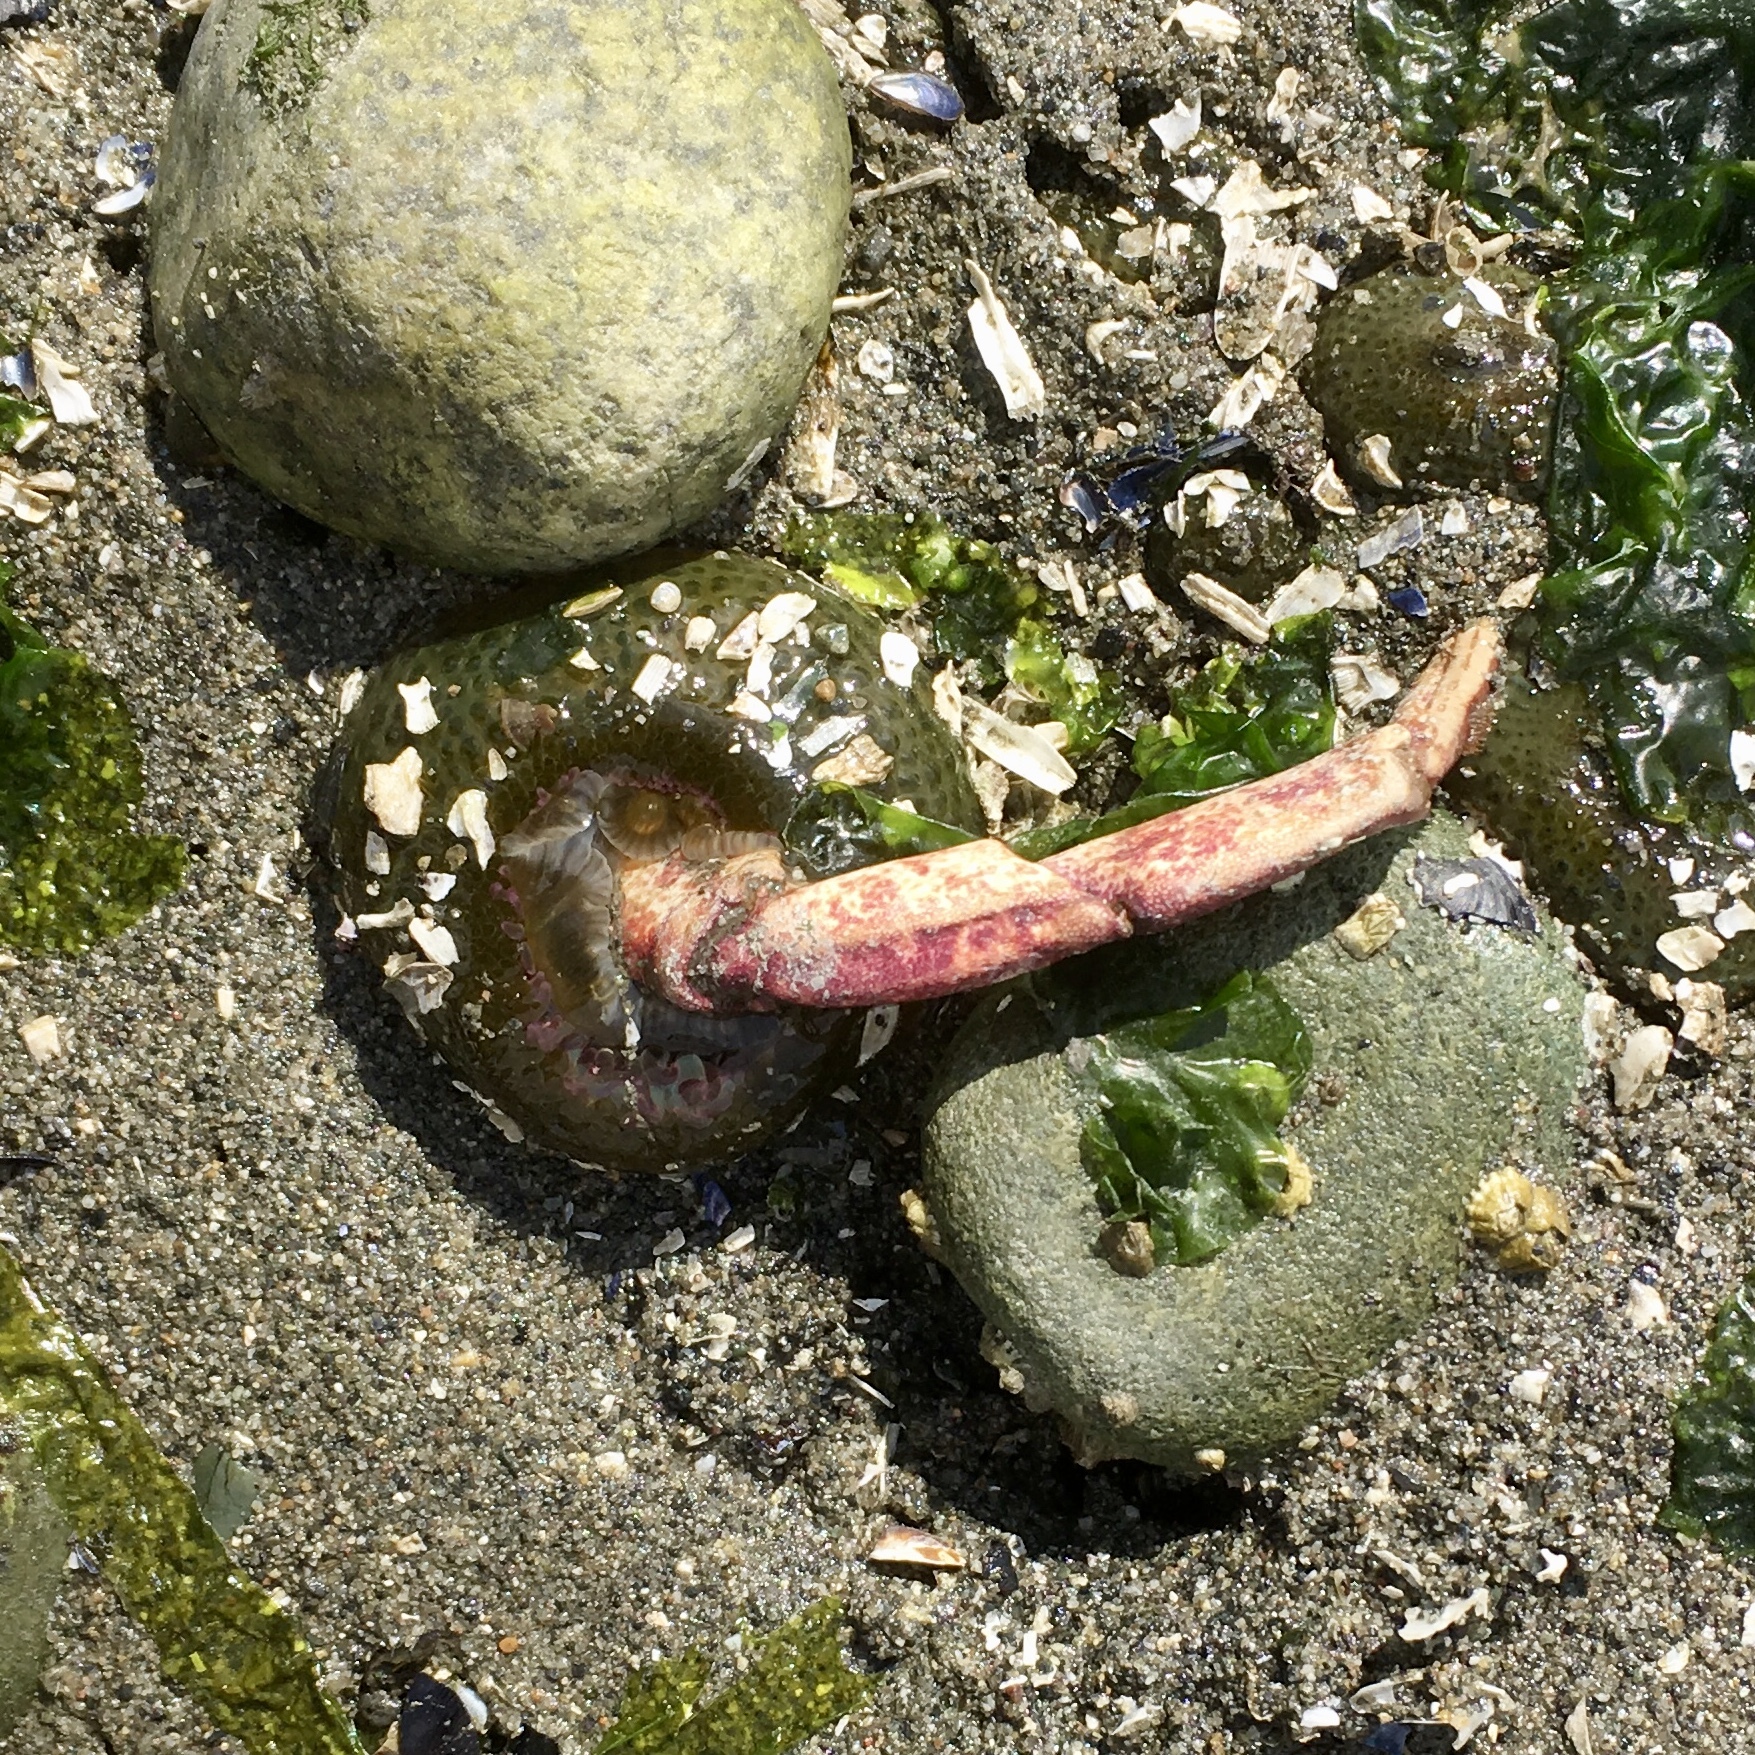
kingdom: Animalia
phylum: Cnidaria
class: Anthozoa
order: Actiniaria
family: Actiniidae
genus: Anthopleura
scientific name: Anthopleura elegantissima
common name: Clonal anemone
